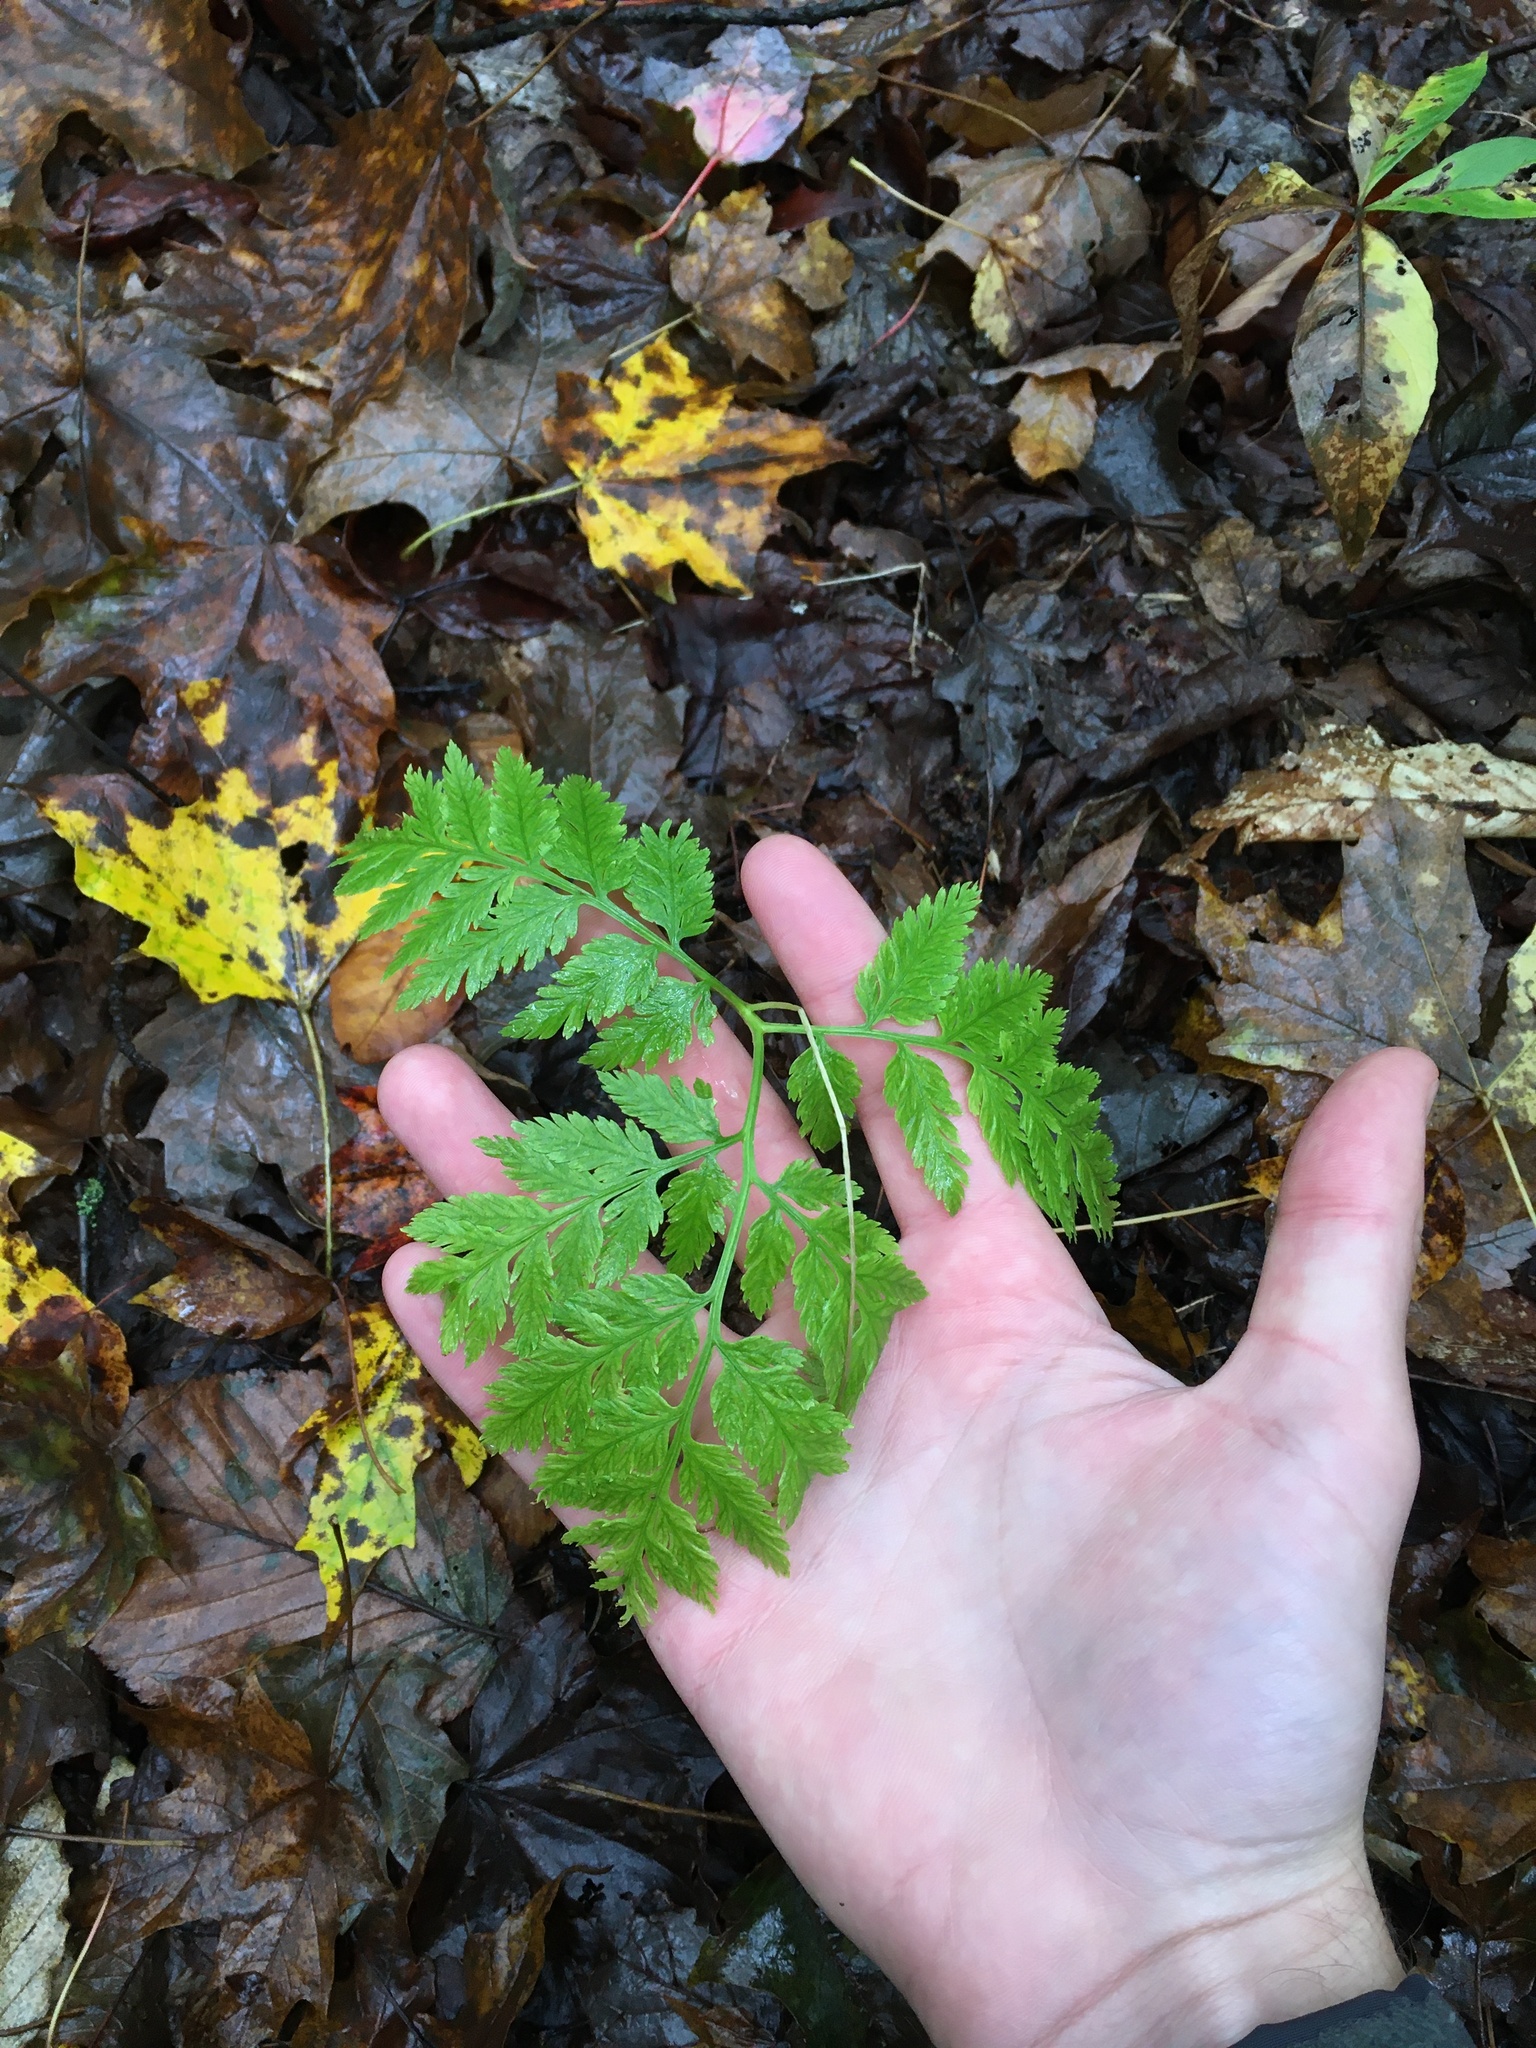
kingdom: Plantae
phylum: Tracheophyta
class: Polypodiopsida
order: Ophioglossales
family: Ophioglossaceae
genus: Botrypus
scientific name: Botrypus virginianus
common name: Common grapefern
